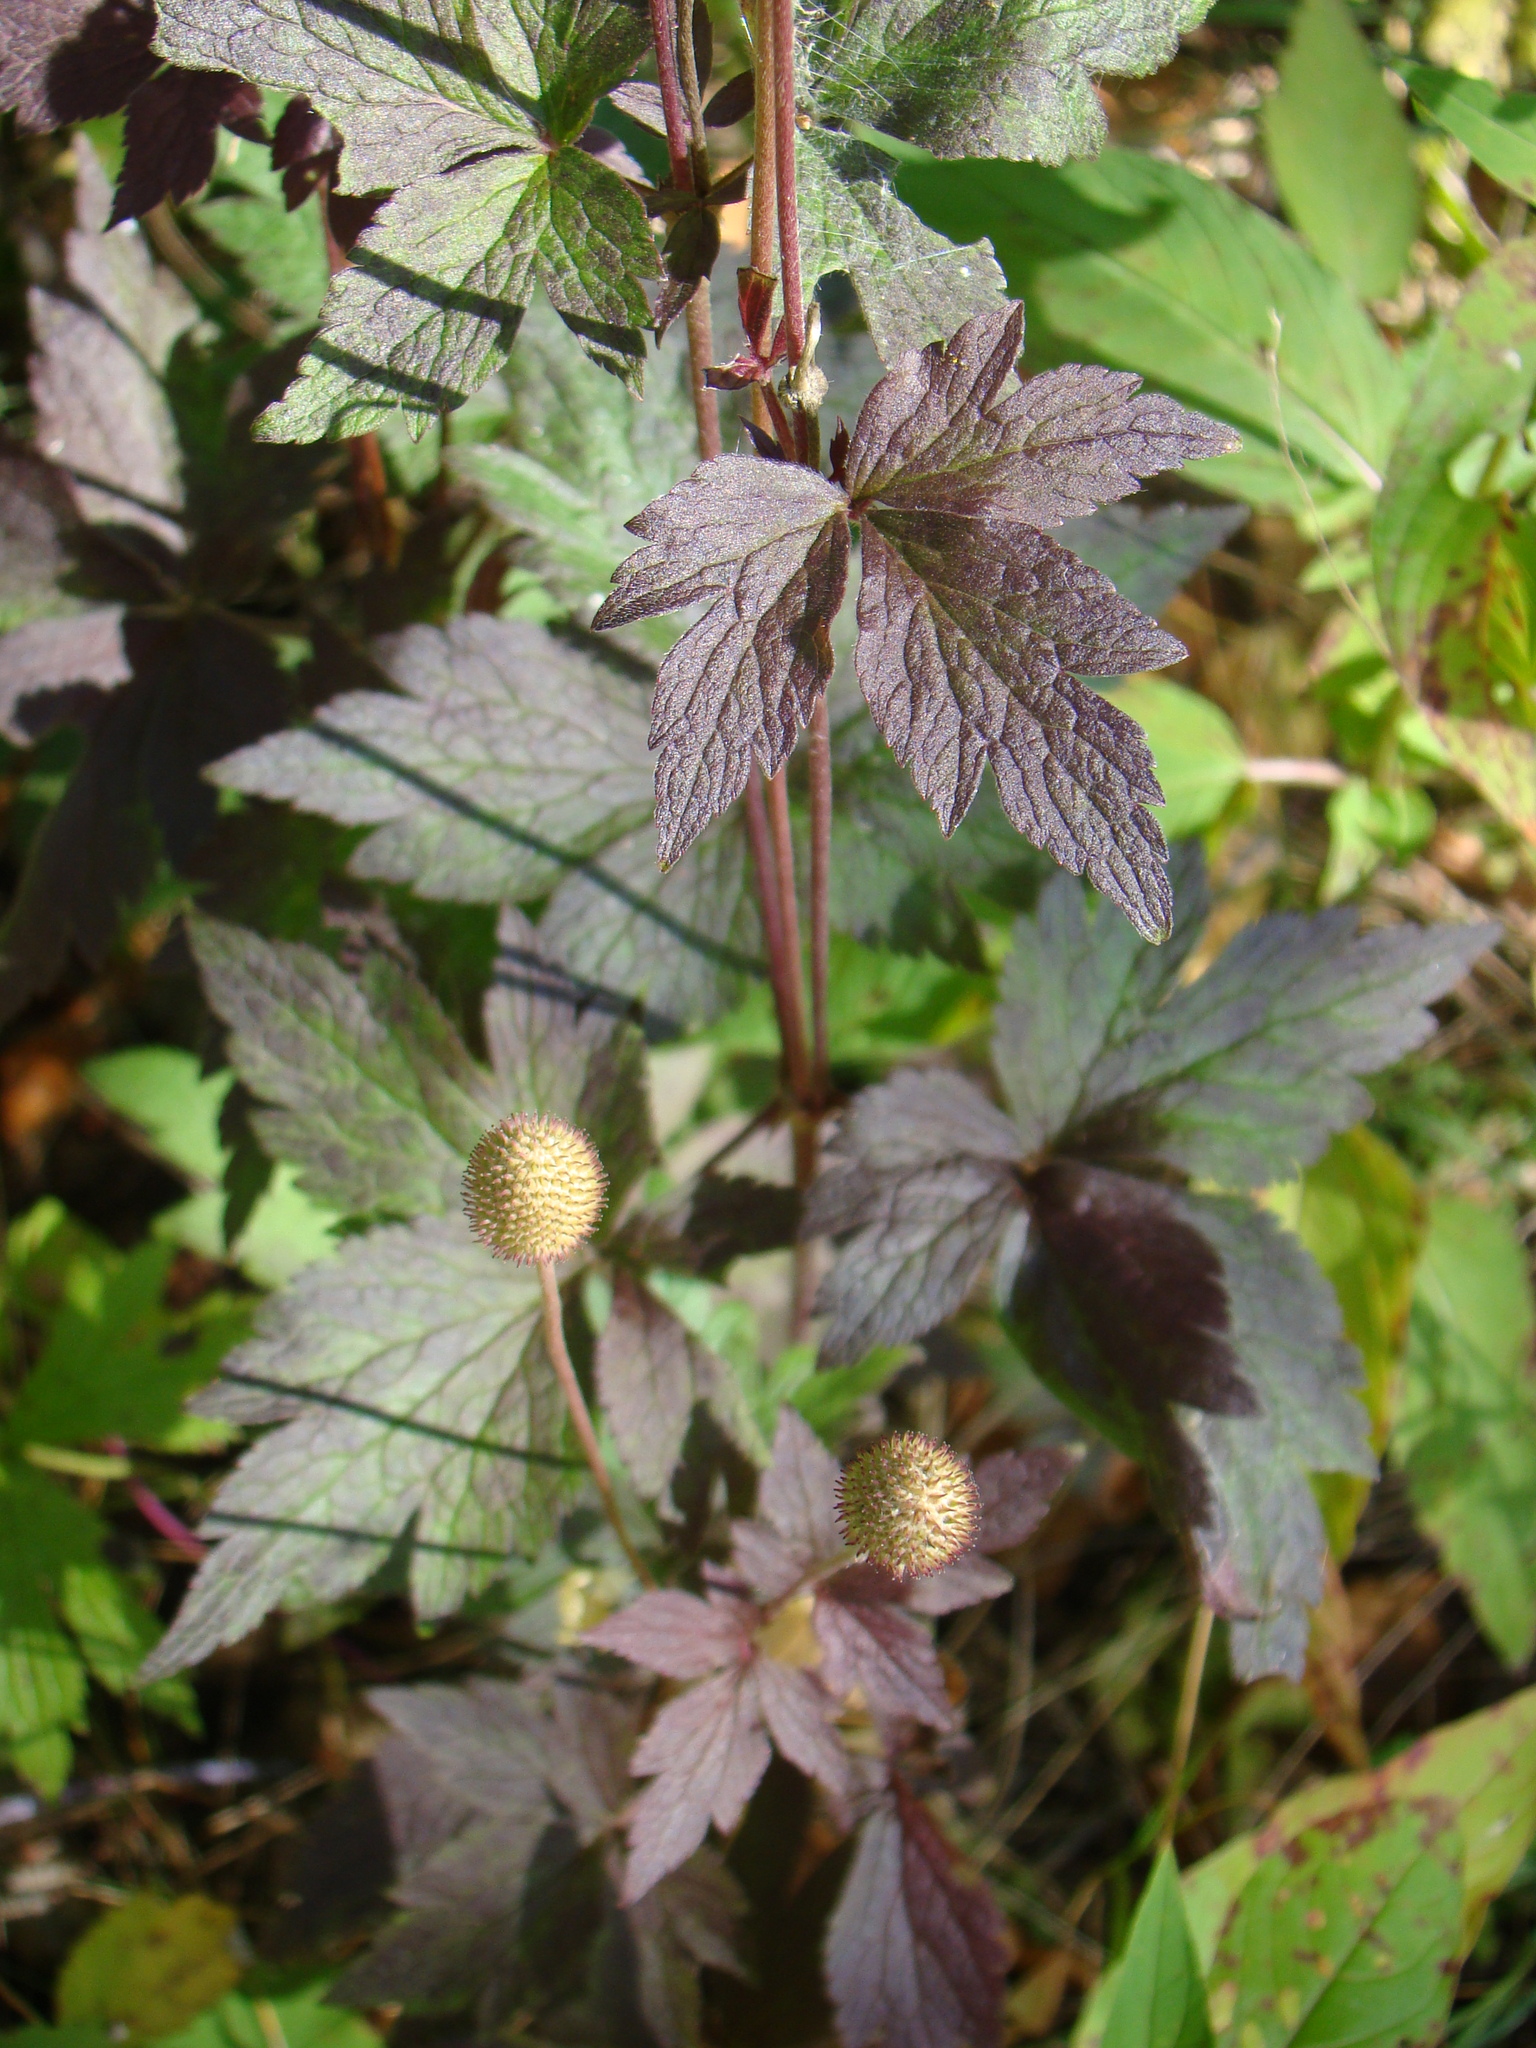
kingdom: Plantae
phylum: Tracheophyta
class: Magnoliopsida
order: Ranunculales
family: Ranunculaceae
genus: Anemone
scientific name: Anemone virginiana
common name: Tall anemone
